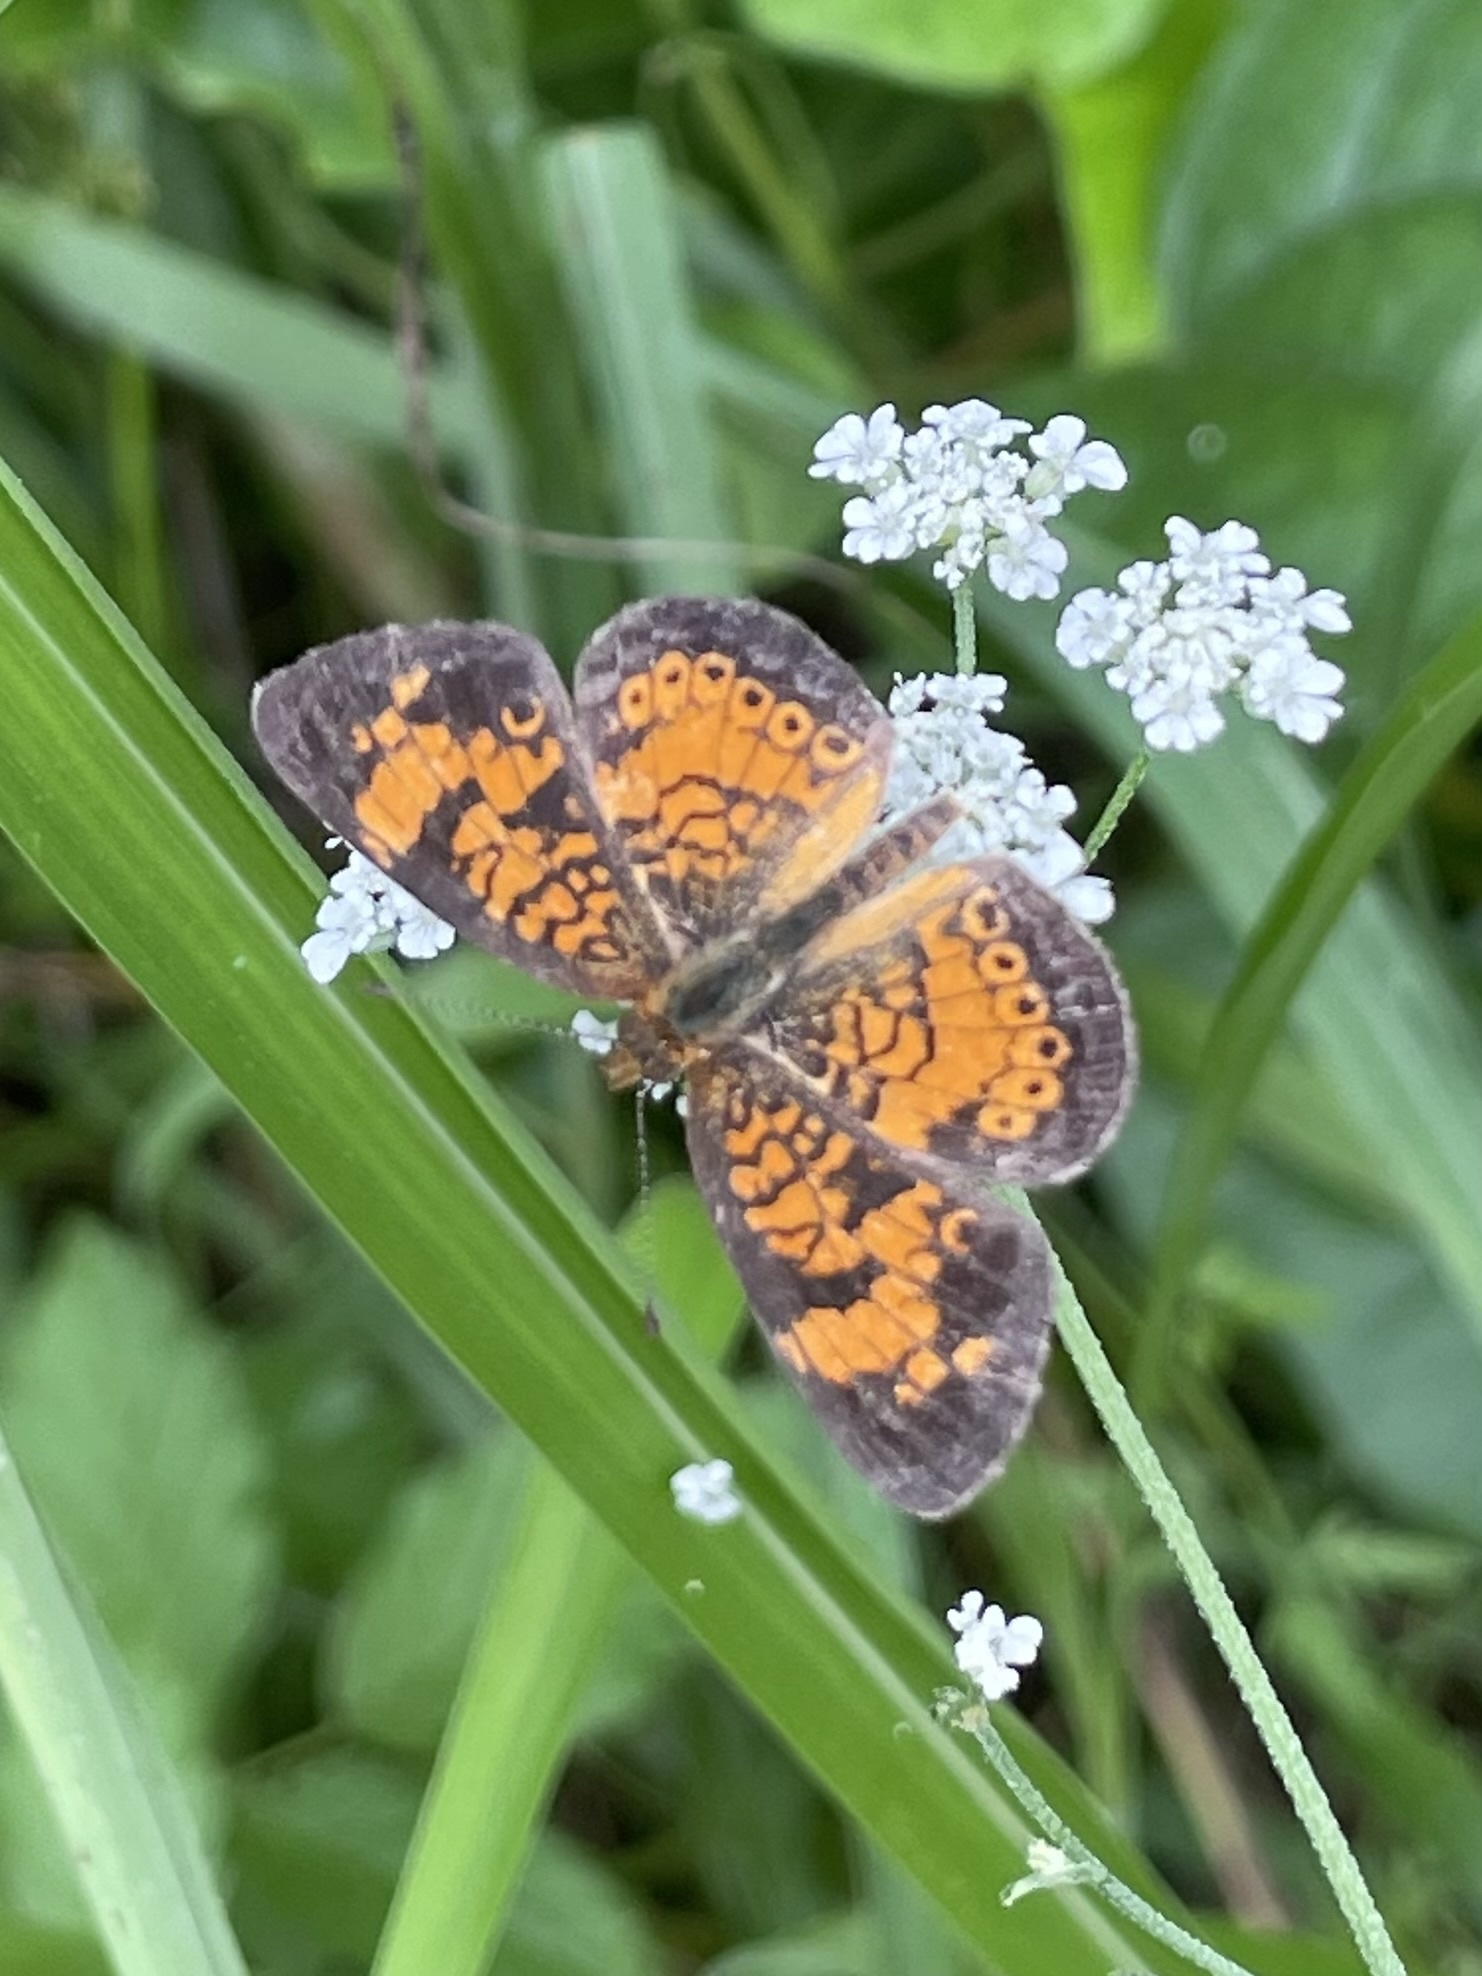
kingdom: Animalia
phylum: Arthropoda
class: Insecta
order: Lepidoptera
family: Nymphalidae
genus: Phyciodes
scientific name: Phyciodes tharos
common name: Pearl crescent
